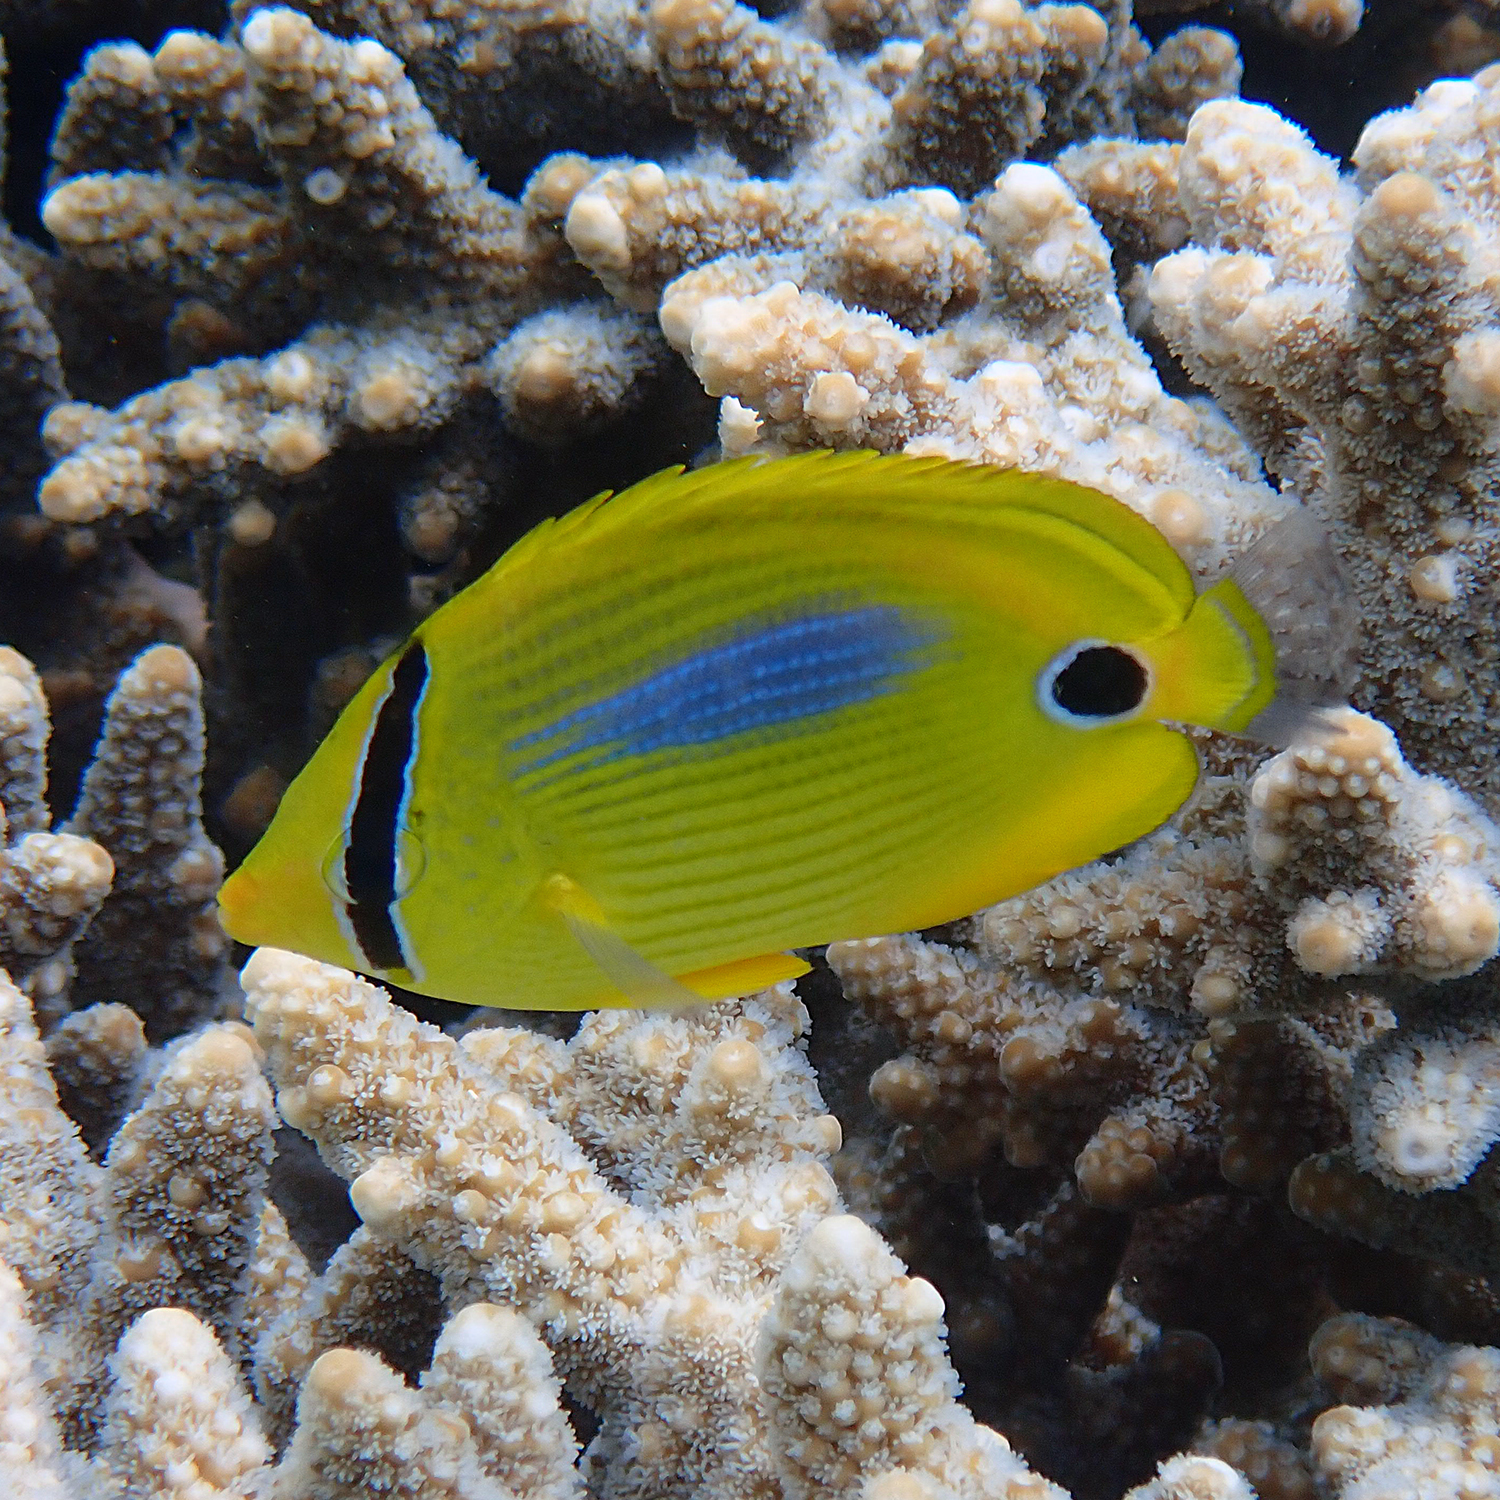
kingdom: Animalia
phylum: Chordata
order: Perciformes
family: Chaetodontidae
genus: Chaetodon
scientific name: Chaetodon plebeius
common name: Bluespot butterflyfish
